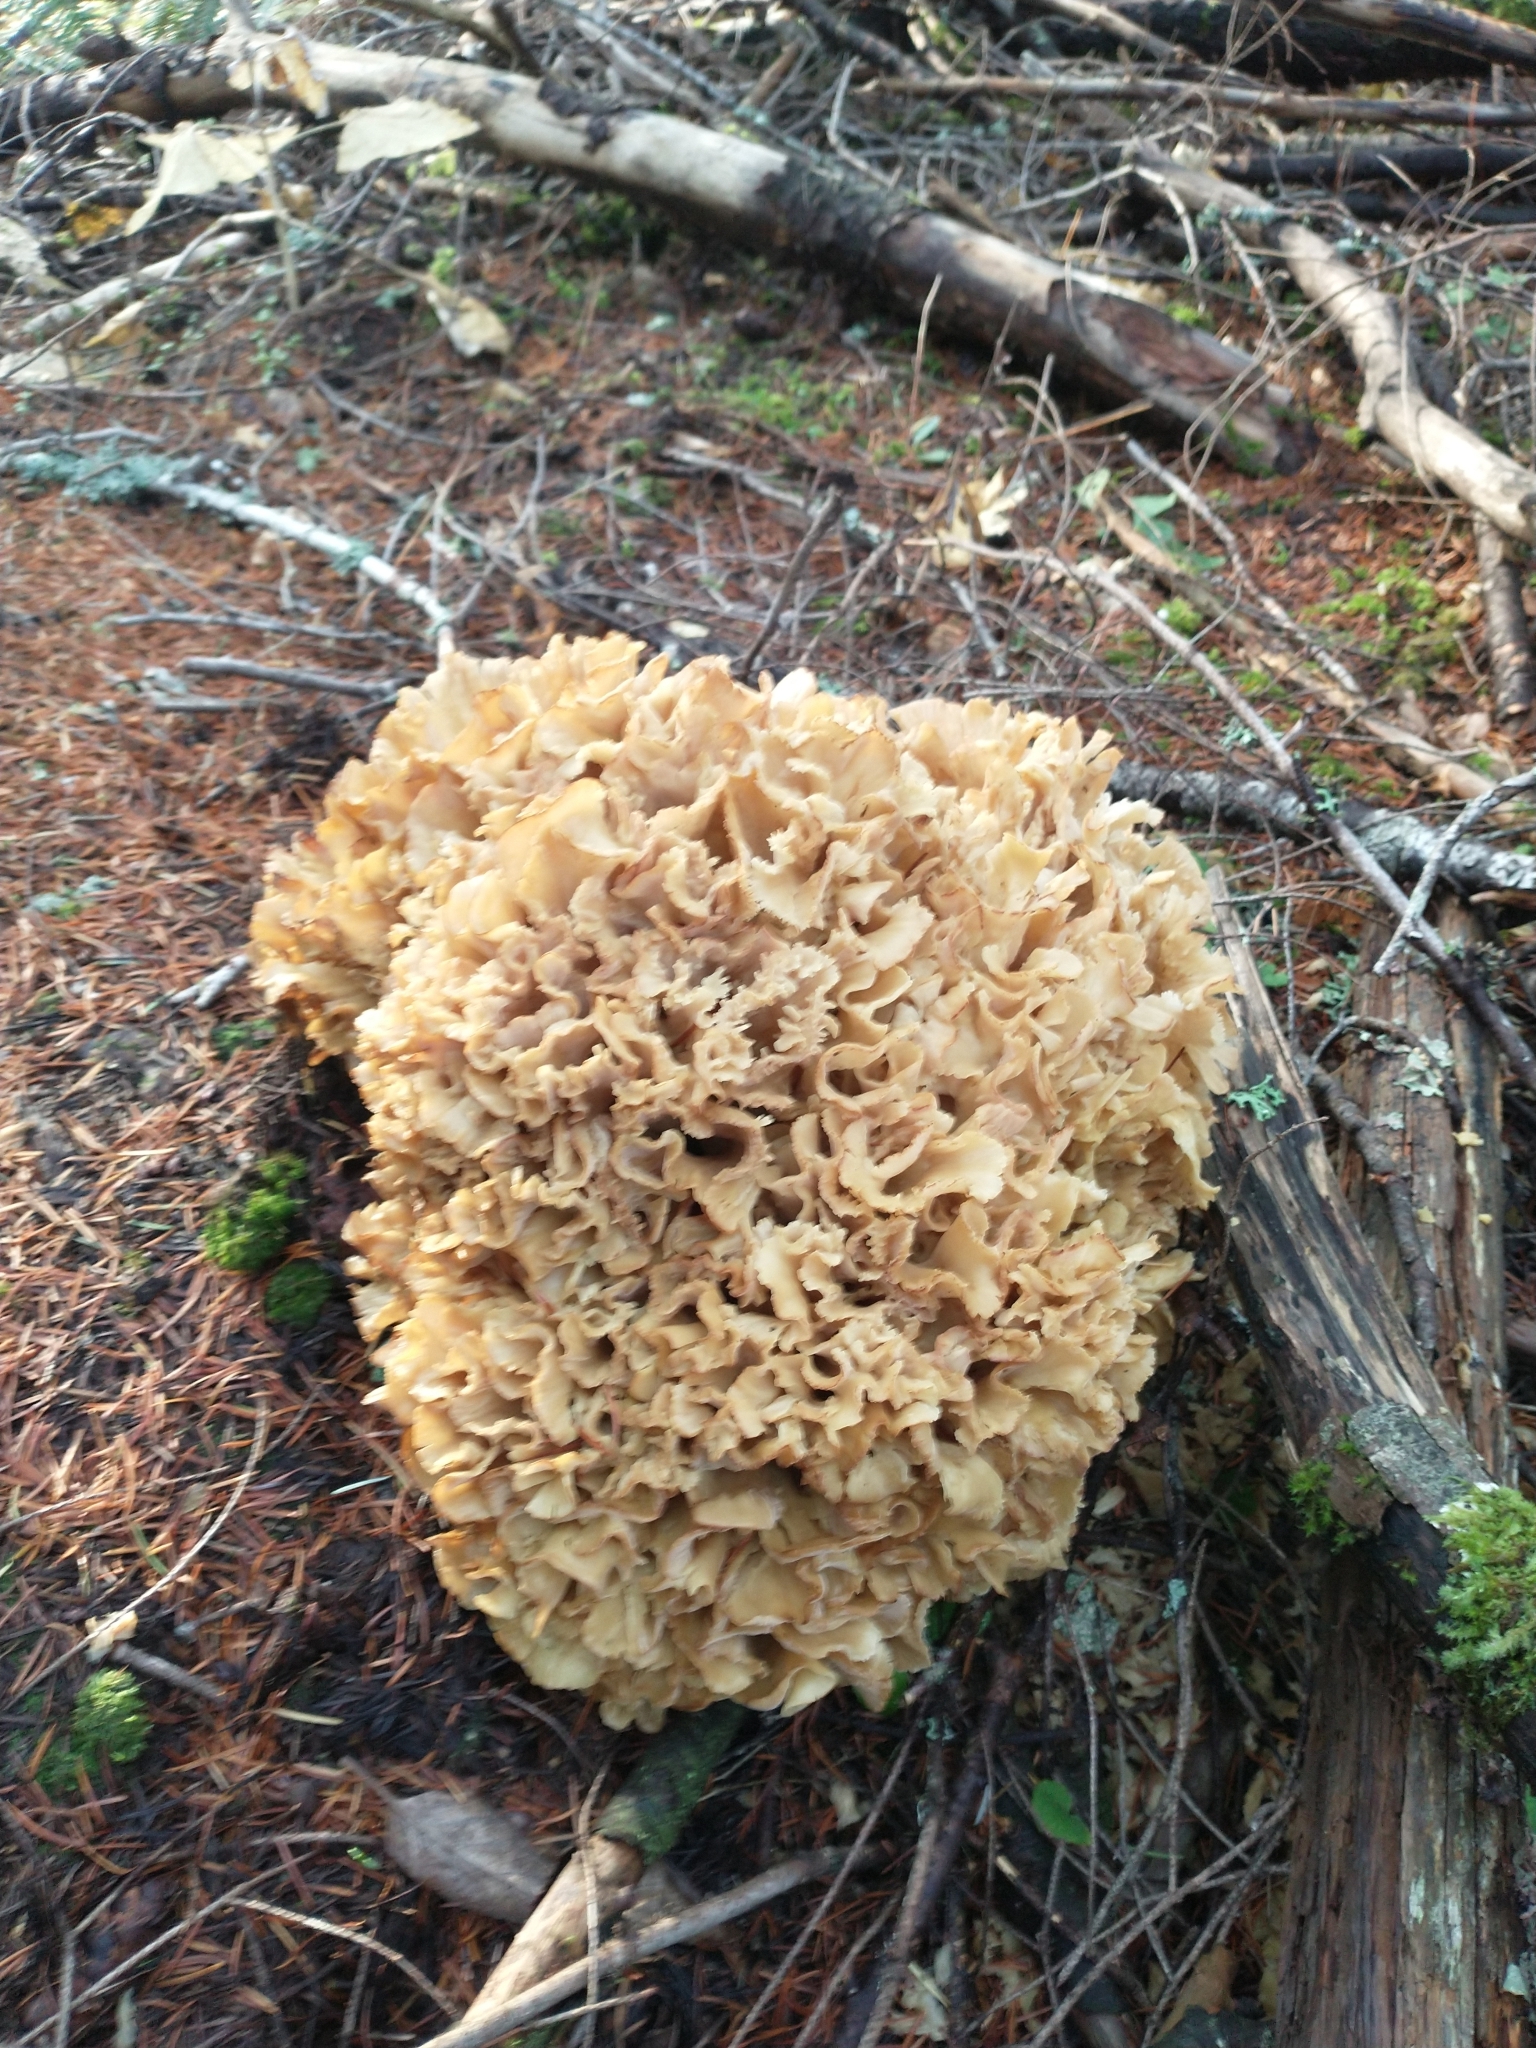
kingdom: Fungi
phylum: Basidiomycota
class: Agaricomycetes
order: Polyporales
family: Sparassidaceae
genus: Sparassis
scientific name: Sparassis radicata
